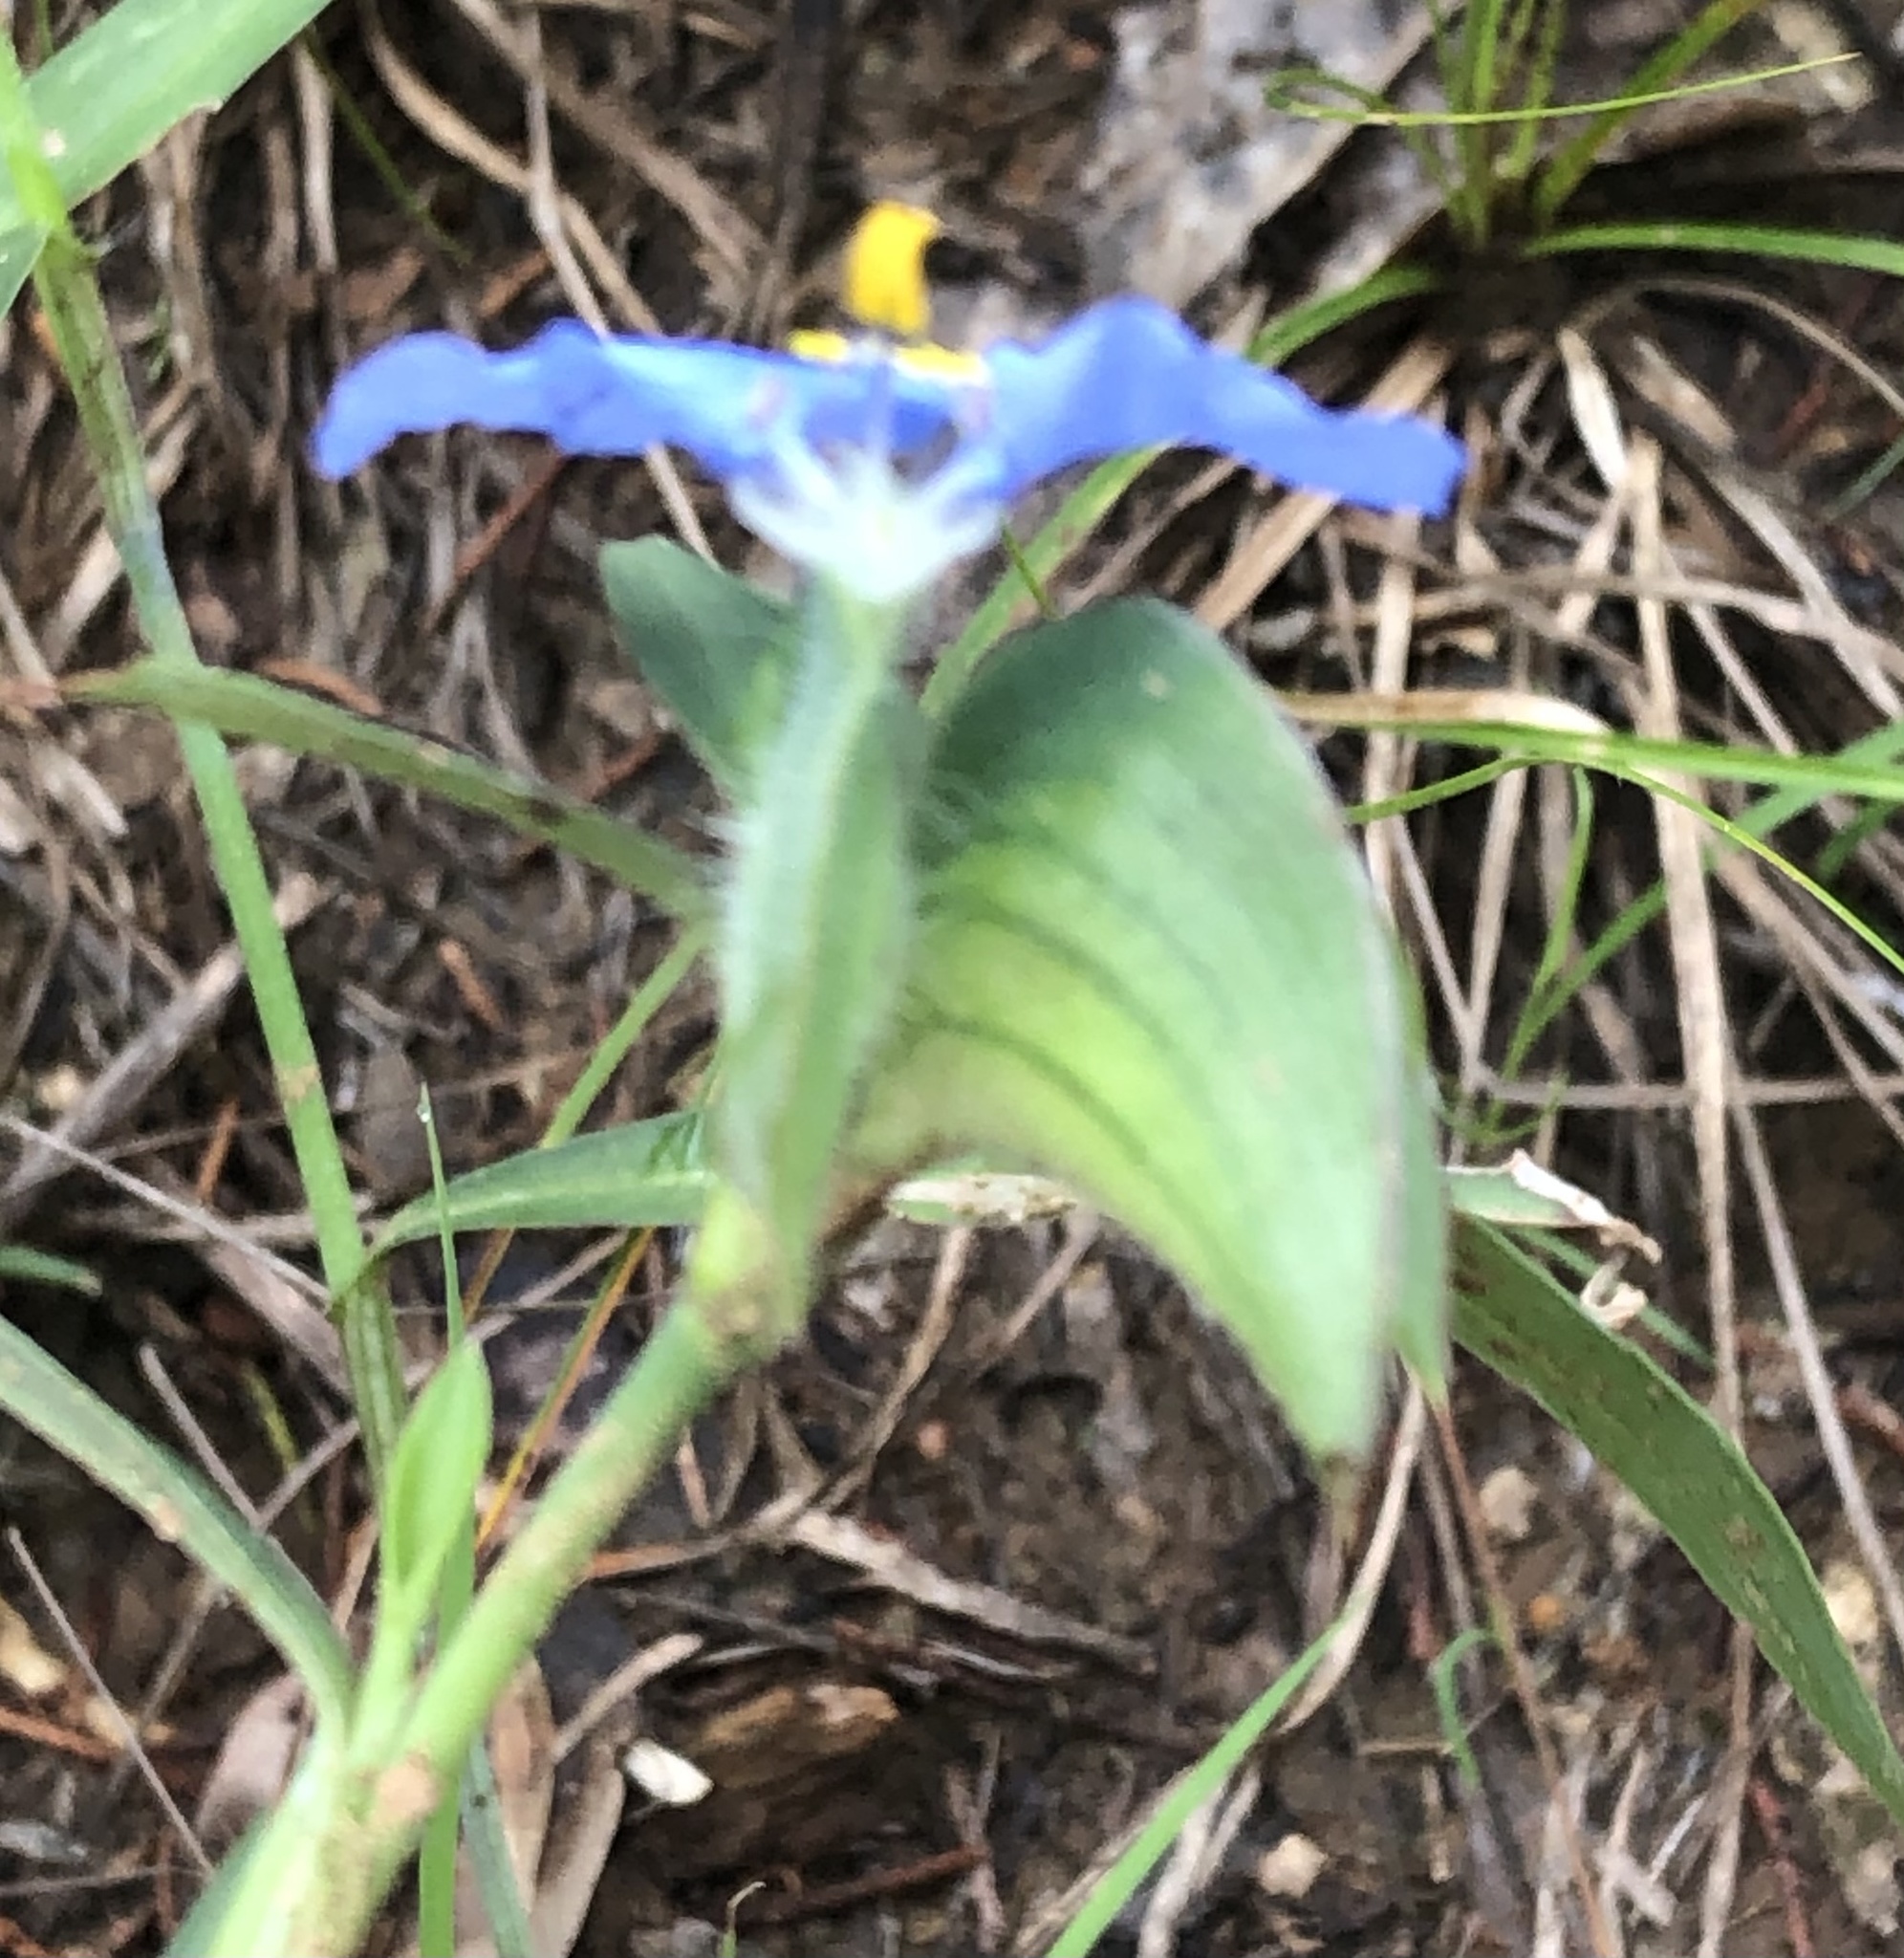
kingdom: Plantae
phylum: Tracheophyta
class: Liliopsida
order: Commelinales
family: Commelinaceae
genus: Commelina
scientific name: Commelina erecta
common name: Blousel blommetjie
